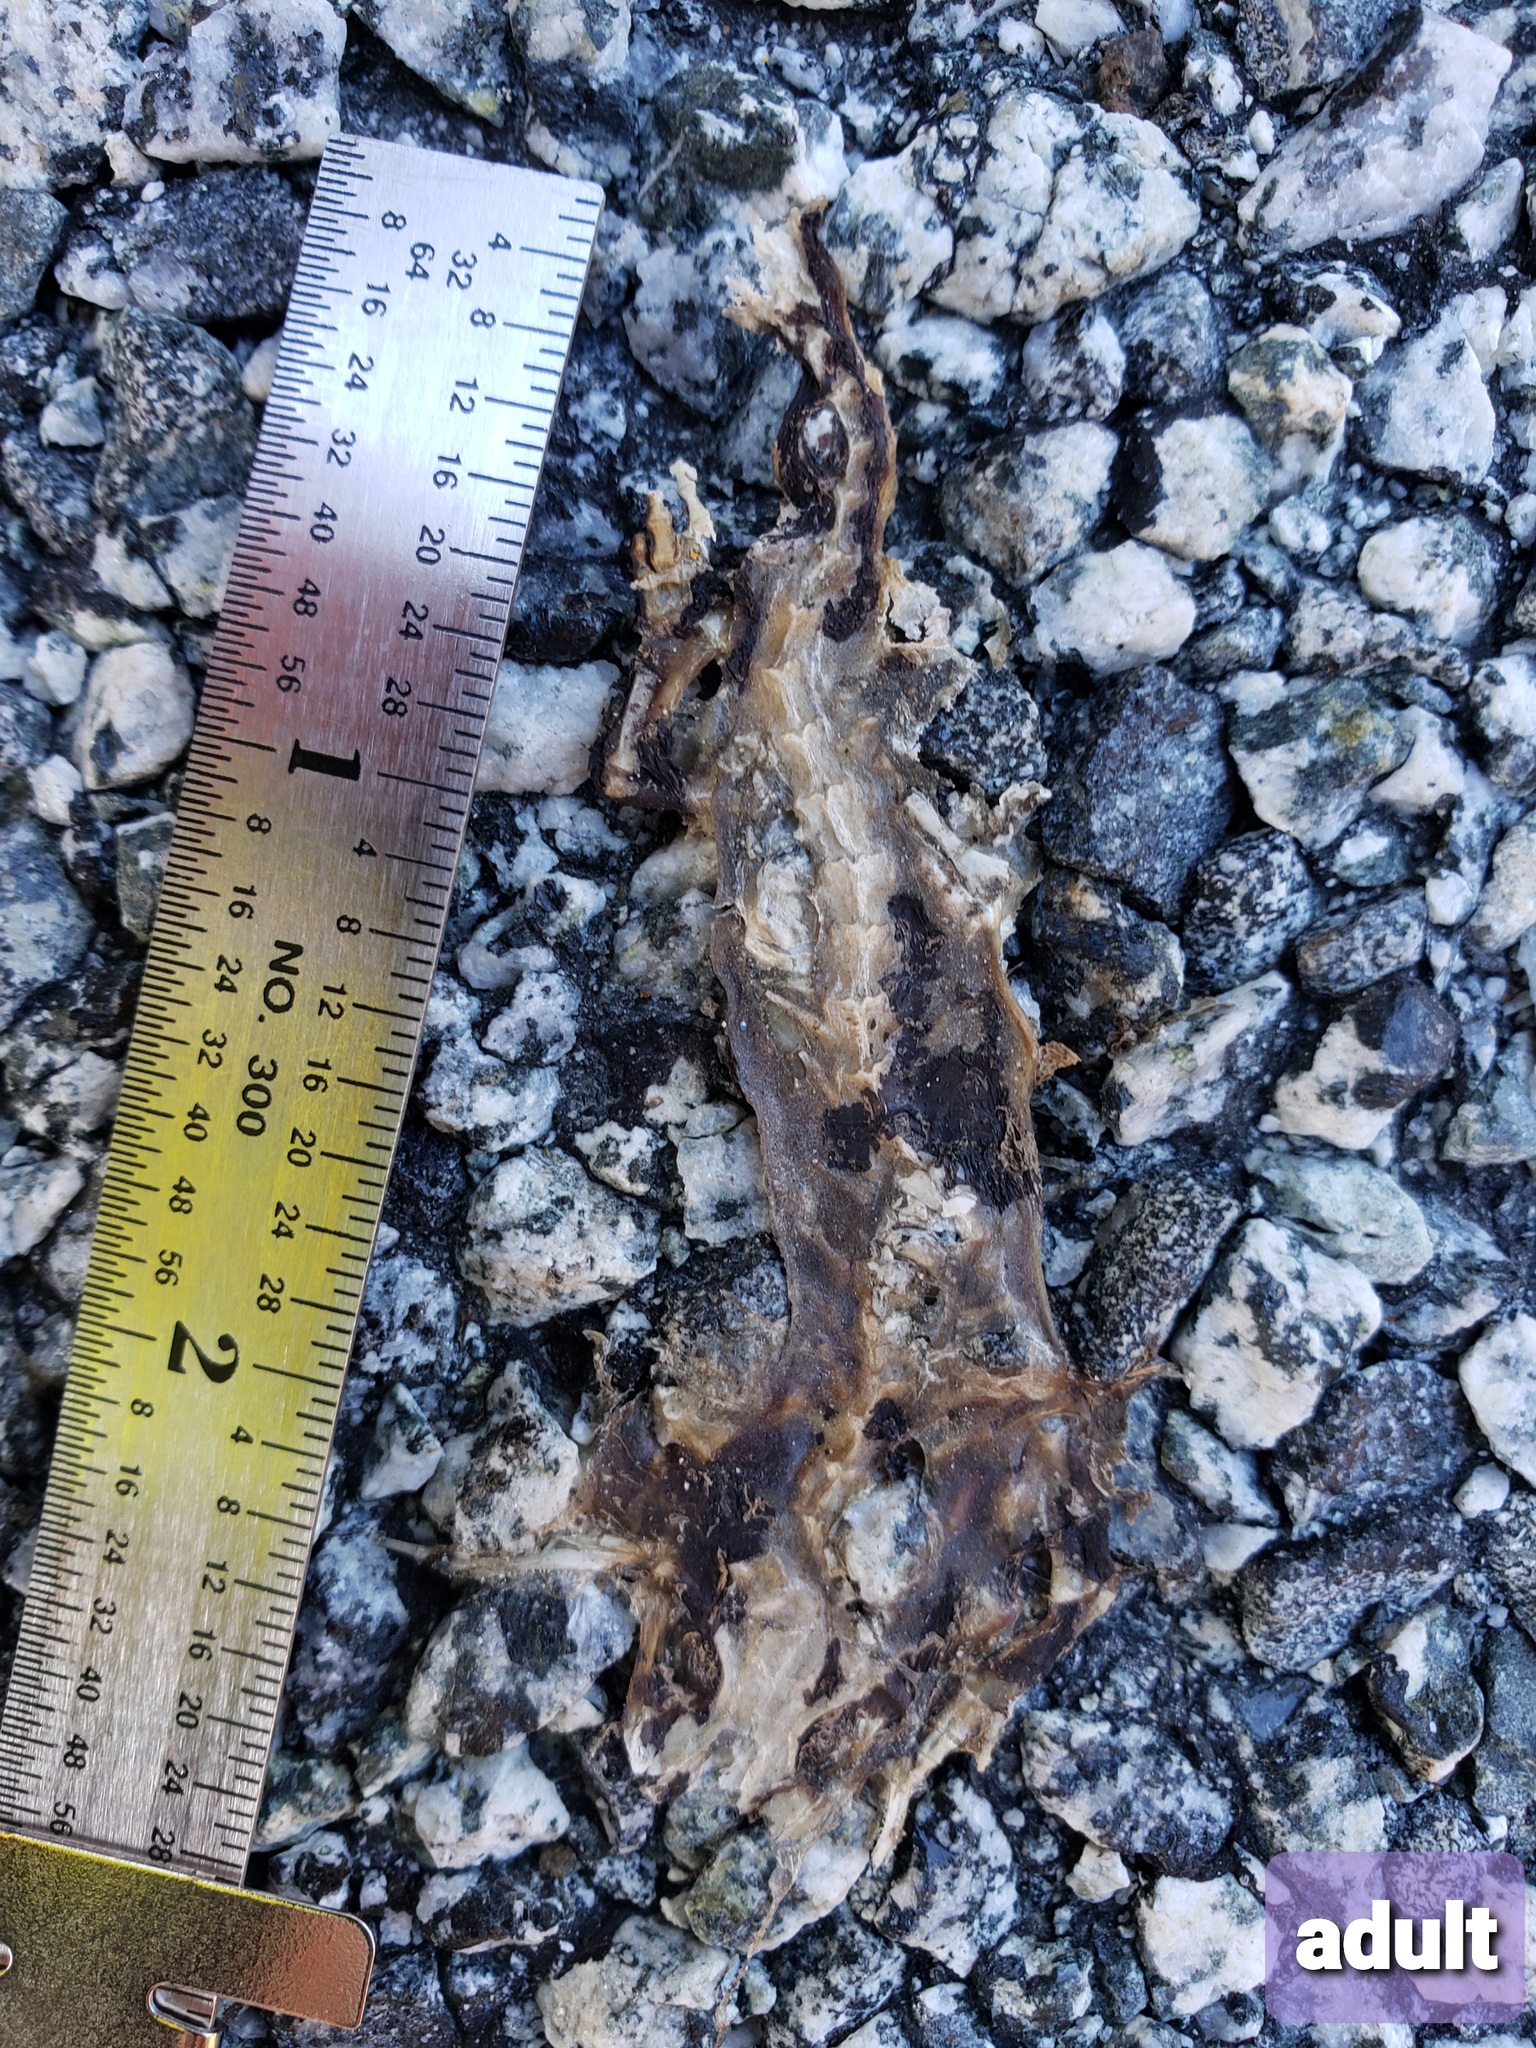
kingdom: Animalia
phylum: Chordata
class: Amphibia
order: Caudata
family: Salamandridae
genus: Taricha
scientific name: Taricha
